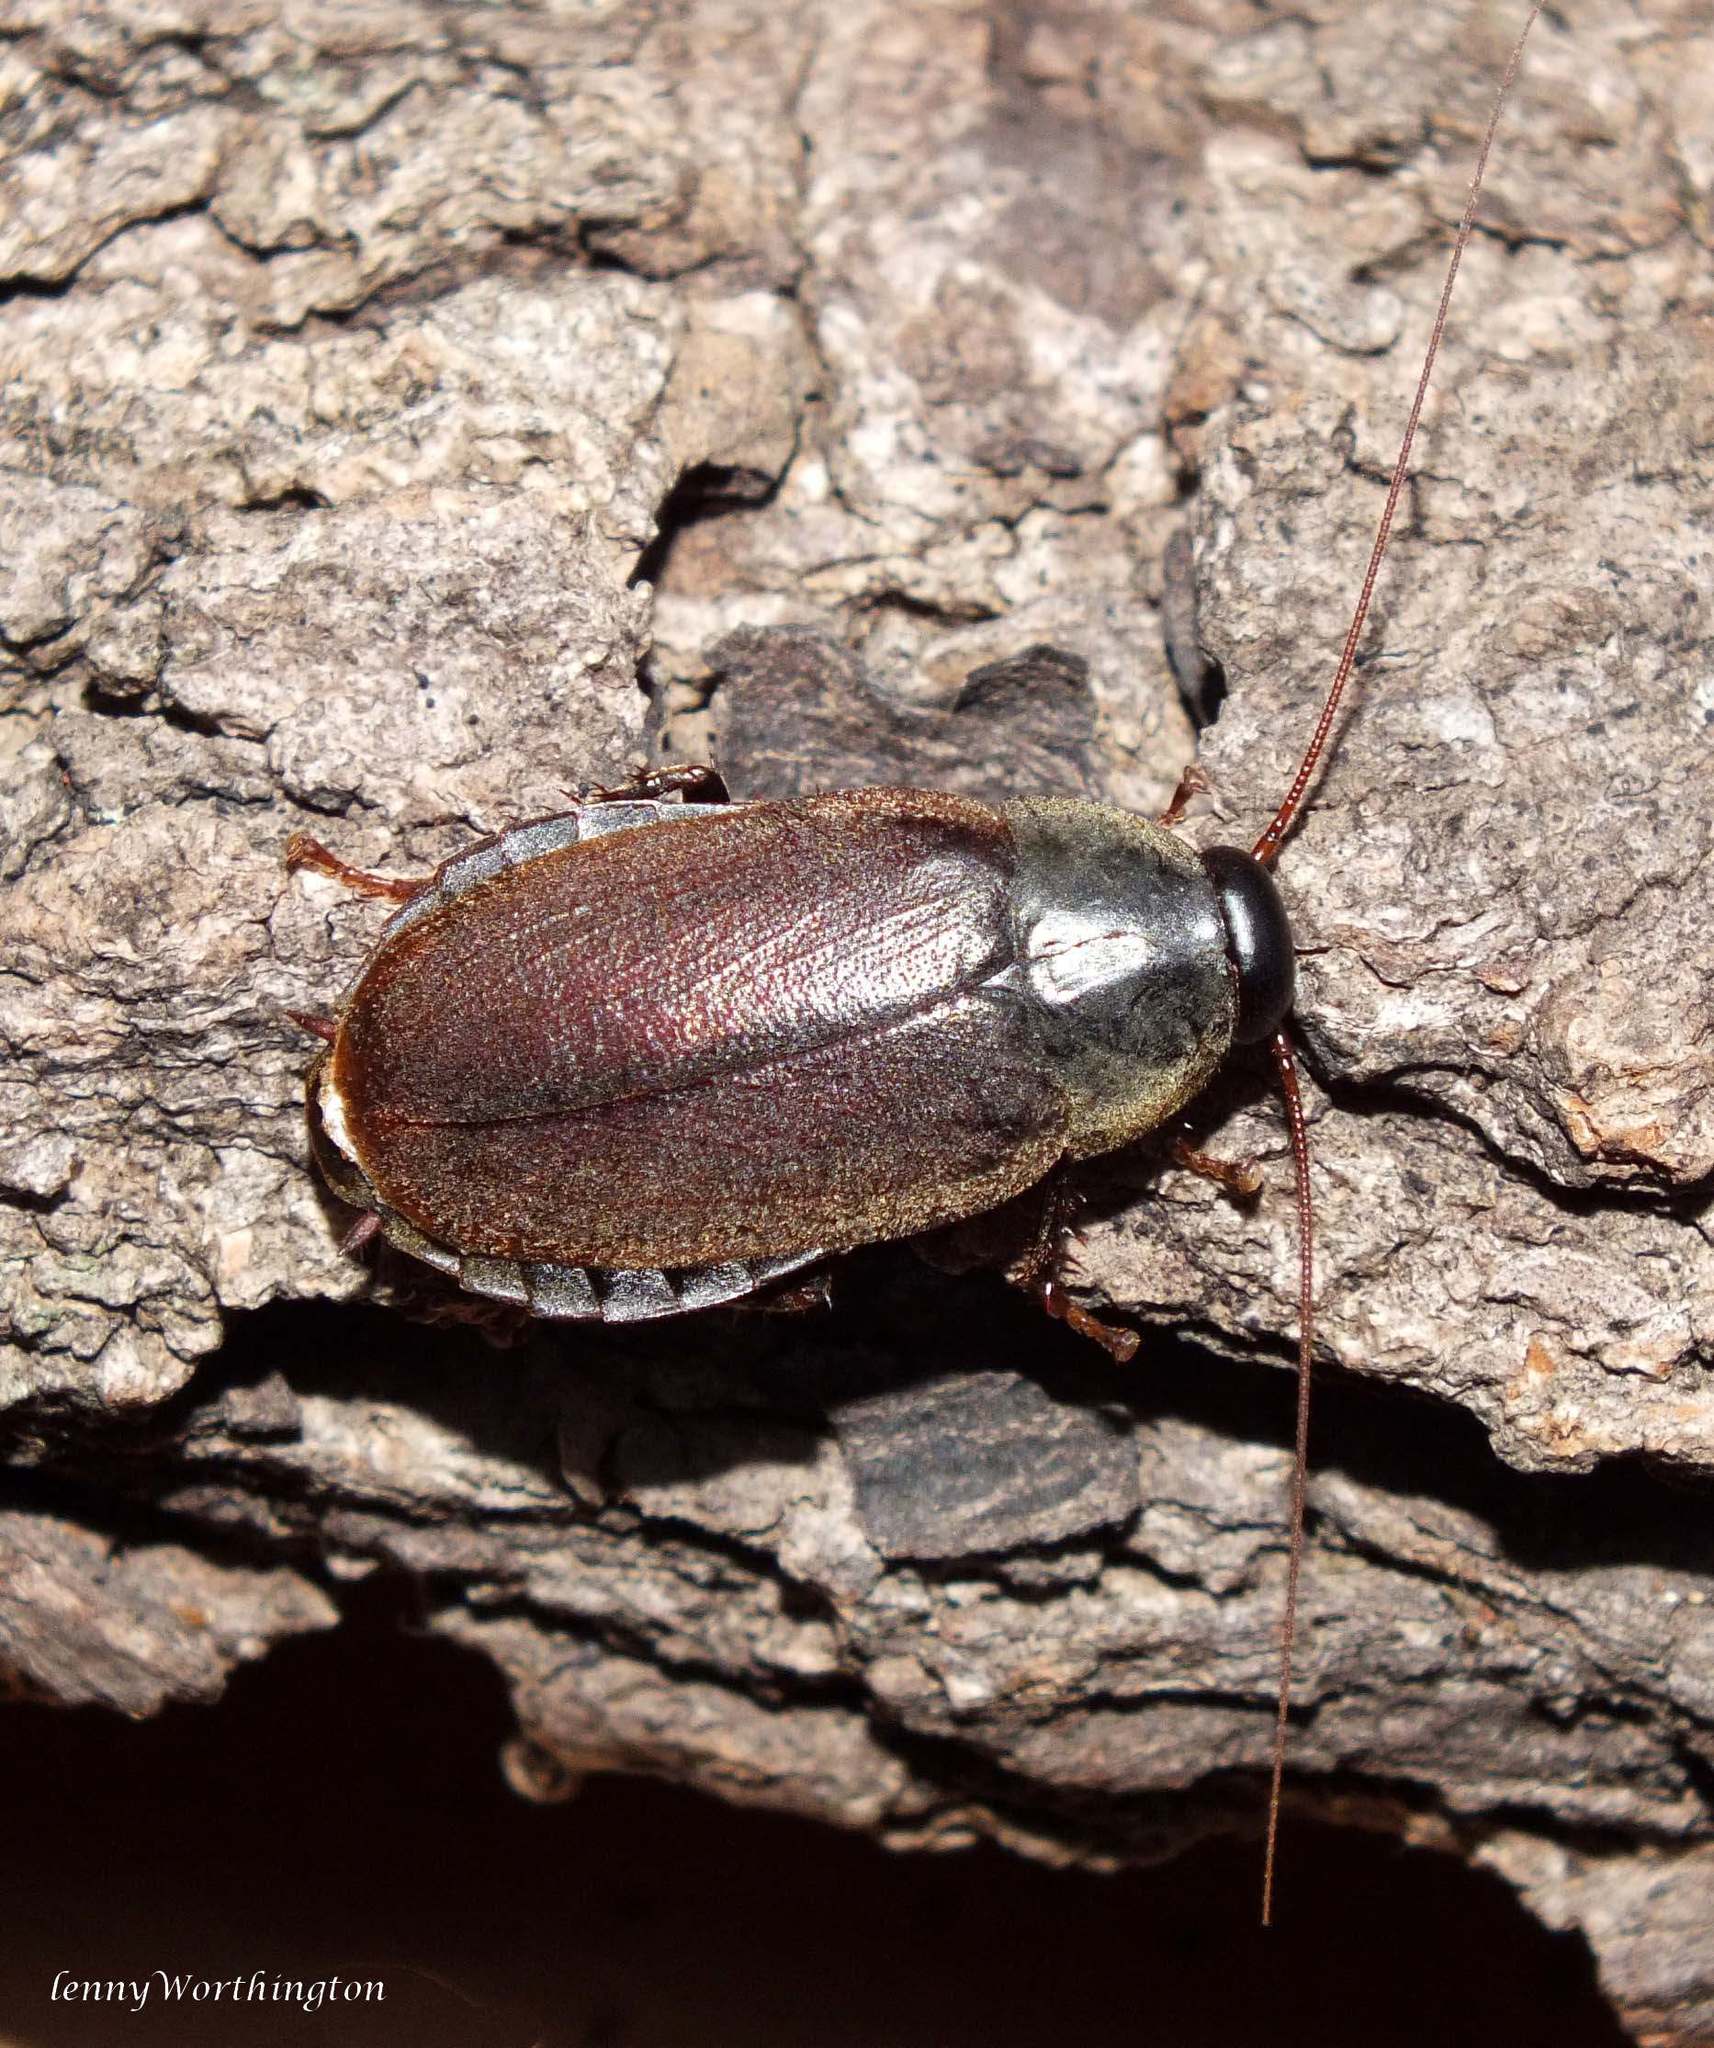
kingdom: Animalia
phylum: Arthropoda
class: Insecta
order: Blattodea
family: Blaberidae
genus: Diploptera
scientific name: Diploptera punctata
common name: Pacific beetle cockroach
